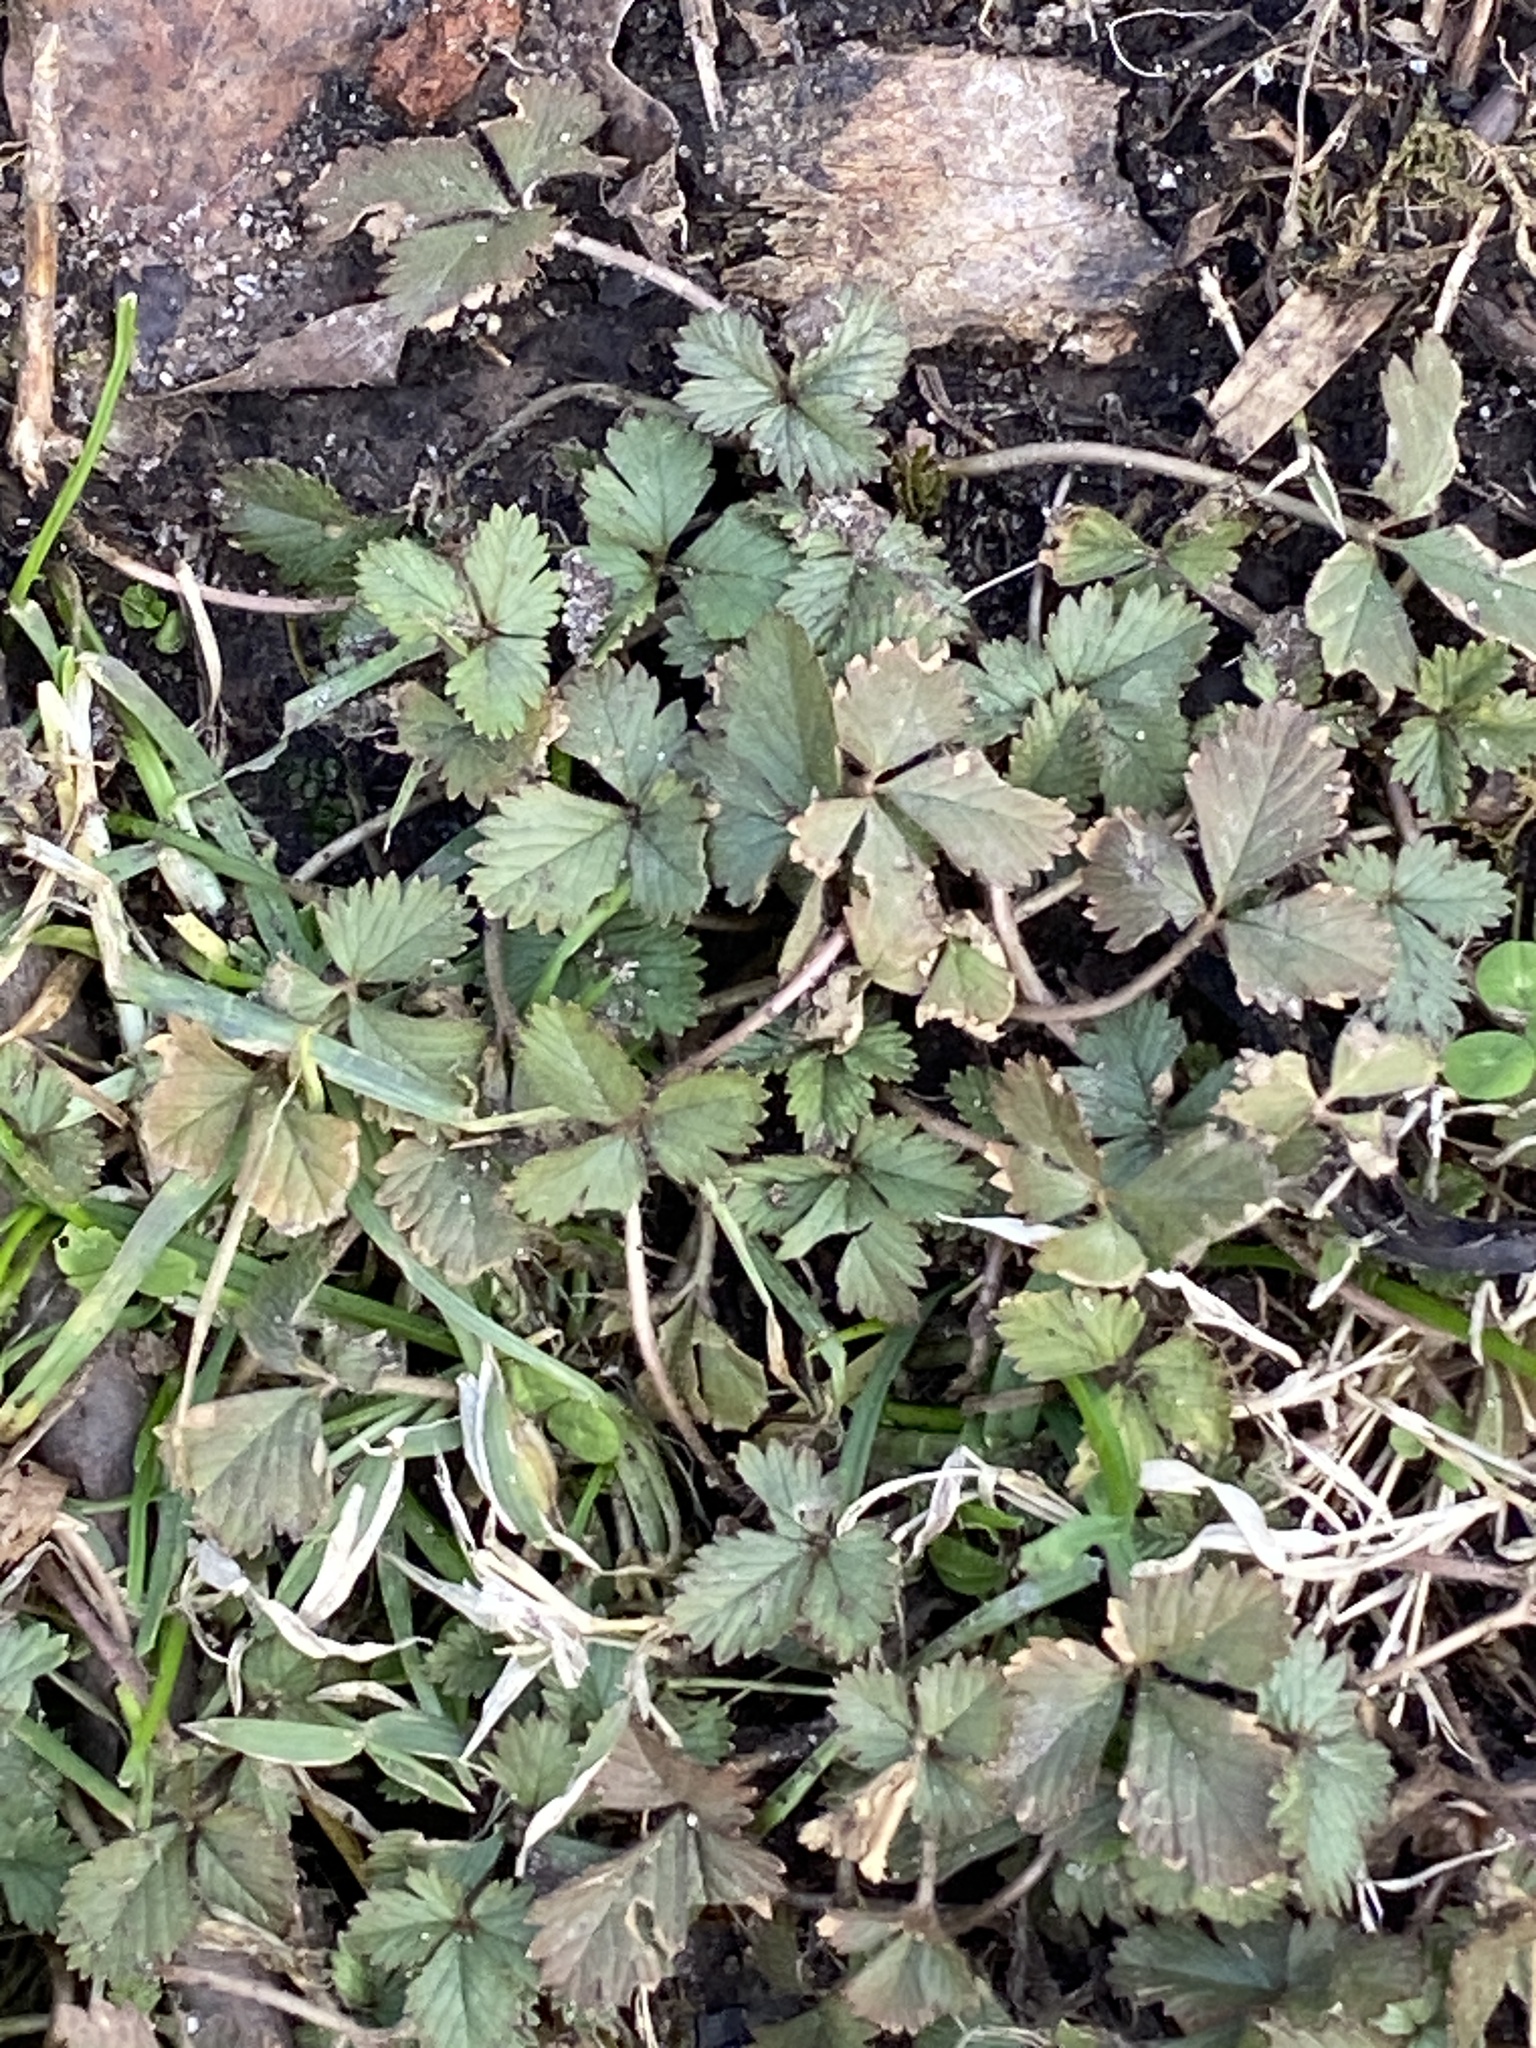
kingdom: Plantae
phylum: Tracheophyta
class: Magnoliopsida
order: Rosales
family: Rosaceae
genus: Potentilla
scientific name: Potentilla indica
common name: Yellow-flowered strawberry
